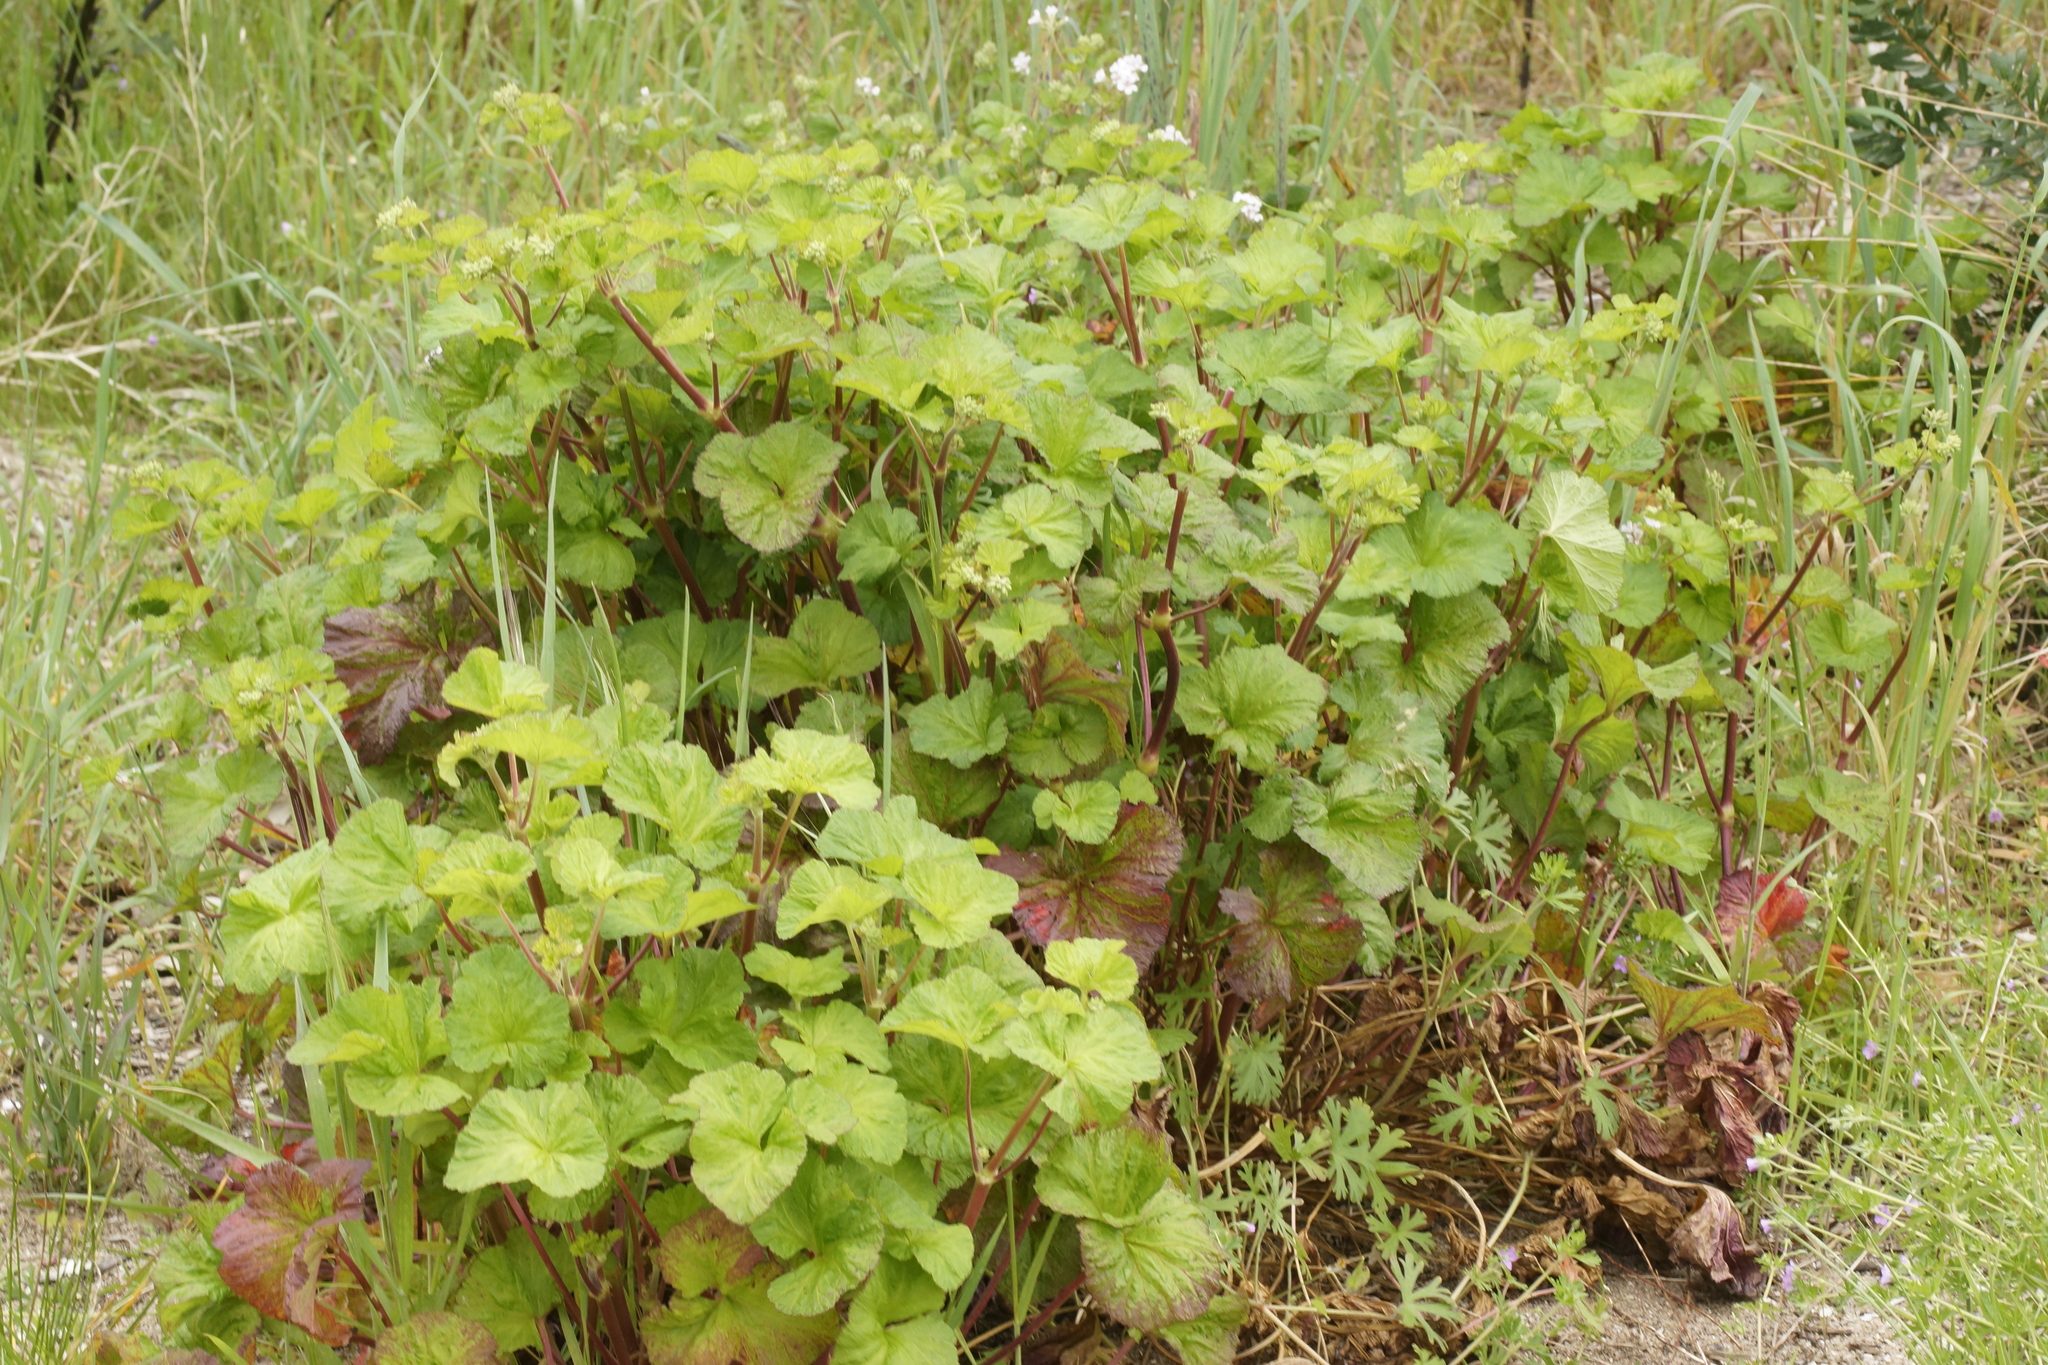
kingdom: Plantae
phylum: Tracheophyta
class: Magnoliopsida
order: Geraniales
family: Geraniaceae
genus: Pelargonium
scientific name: Pelargonium australe
